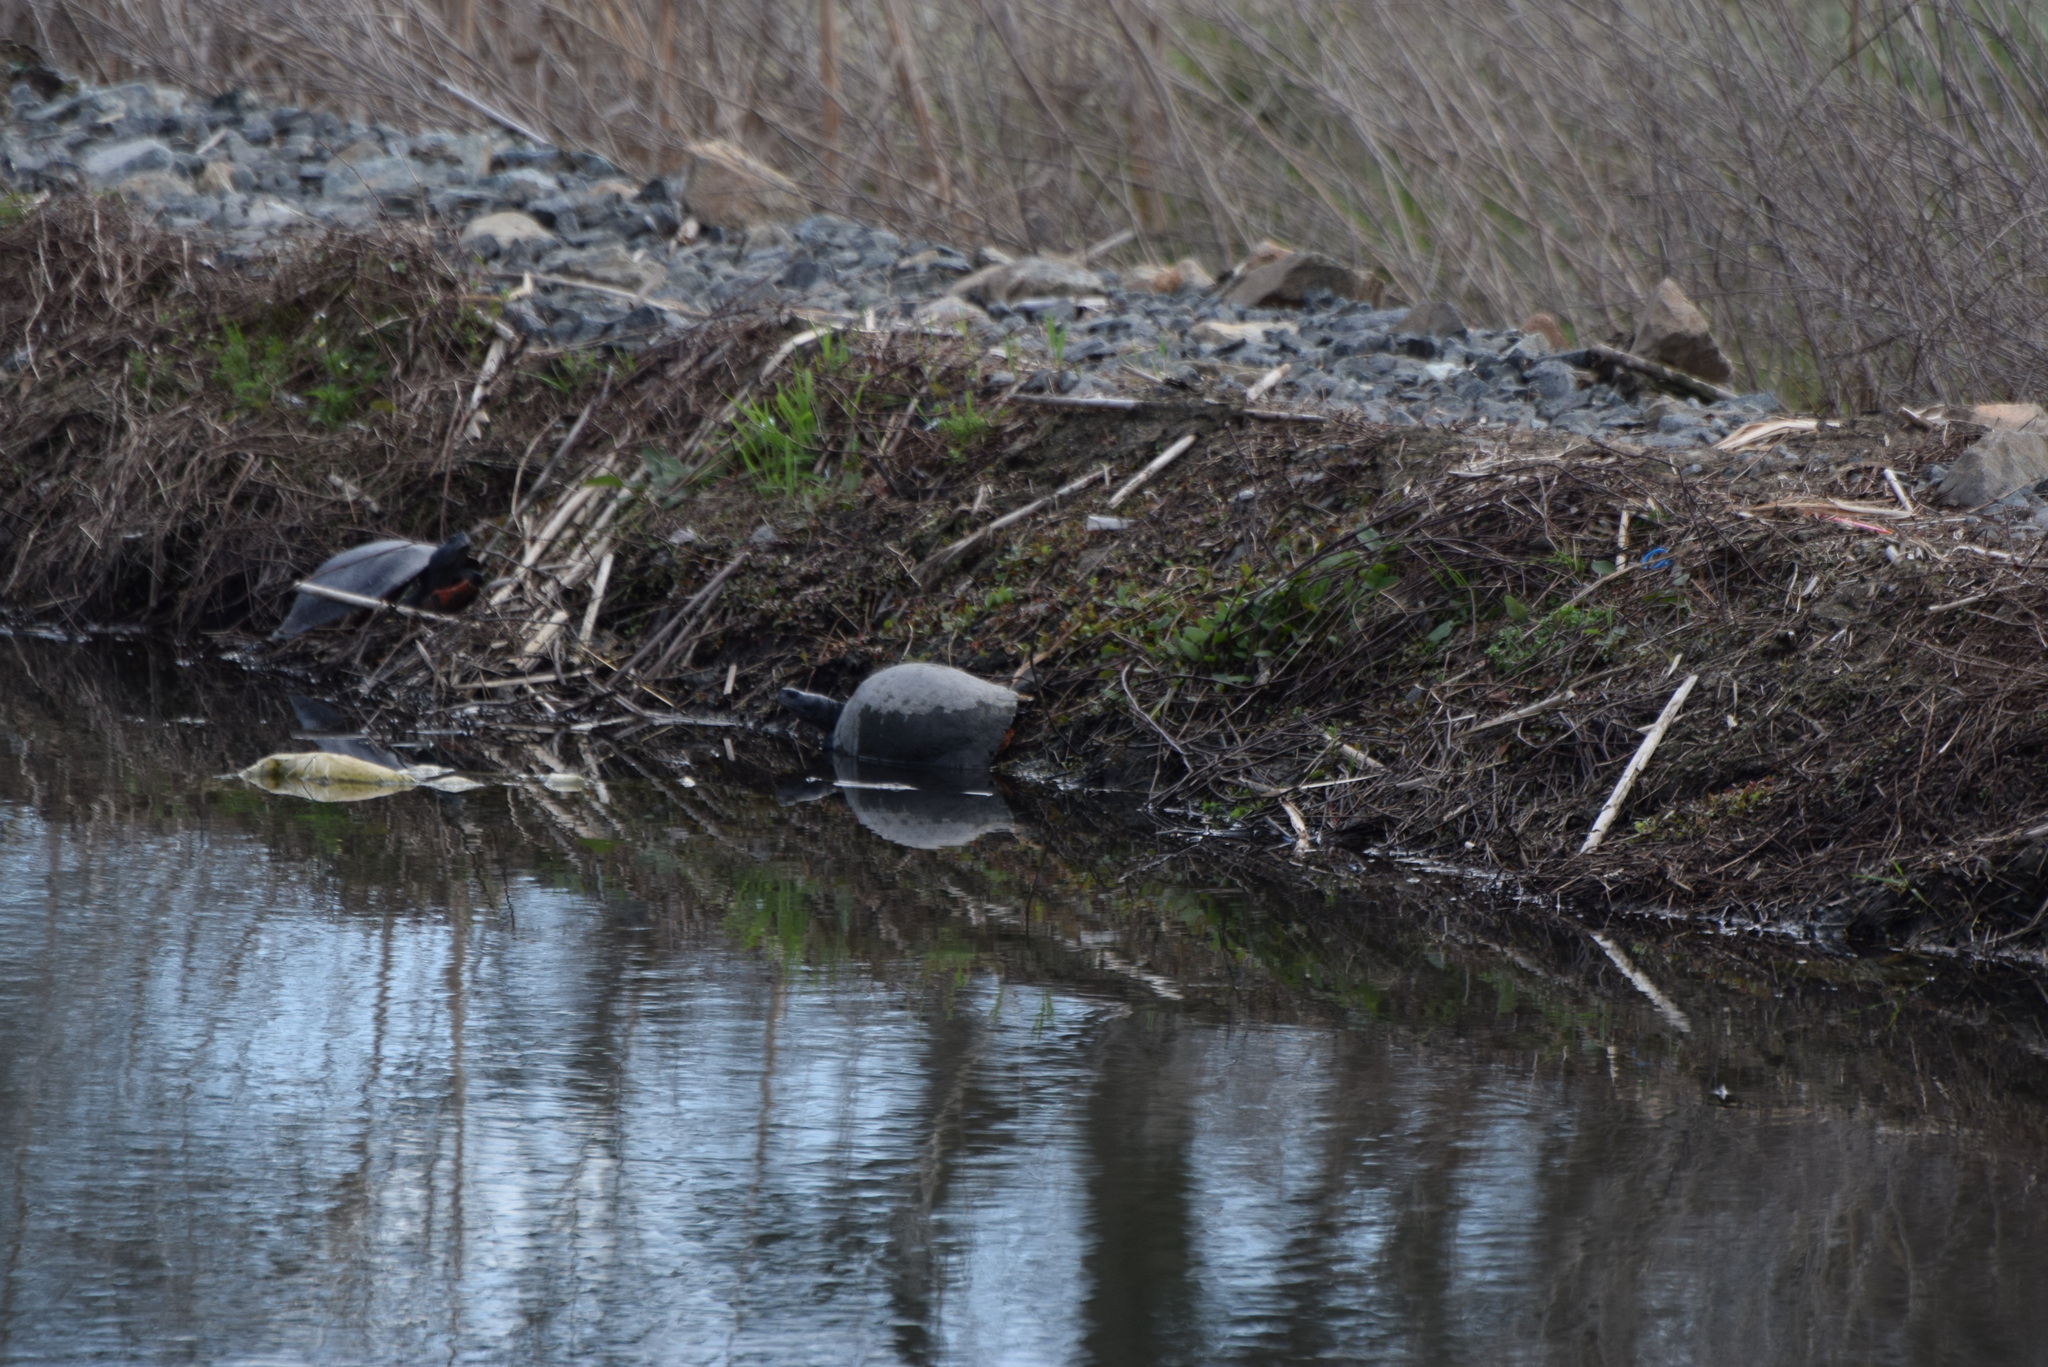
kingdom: Animalia
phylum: Chordata
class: Testudines
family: Emydidae
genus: Pseudemys
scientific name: Pseudemys rubriventris
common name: American red-bellied turtle
